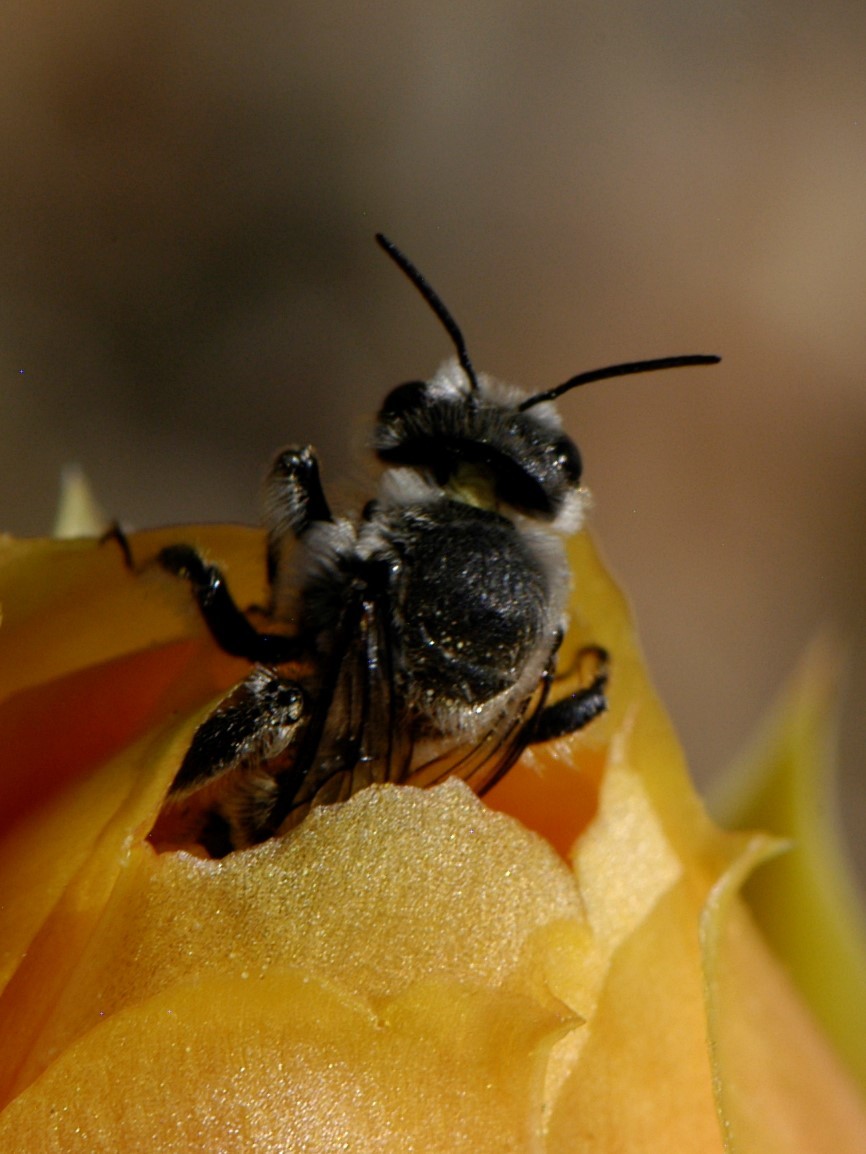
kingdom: Animalia
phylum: Arthropoda
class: Insecta
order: Hymenoptera
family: Megachilidae
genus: Lithurgopsis
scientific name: Lithurgopsis apicalis
